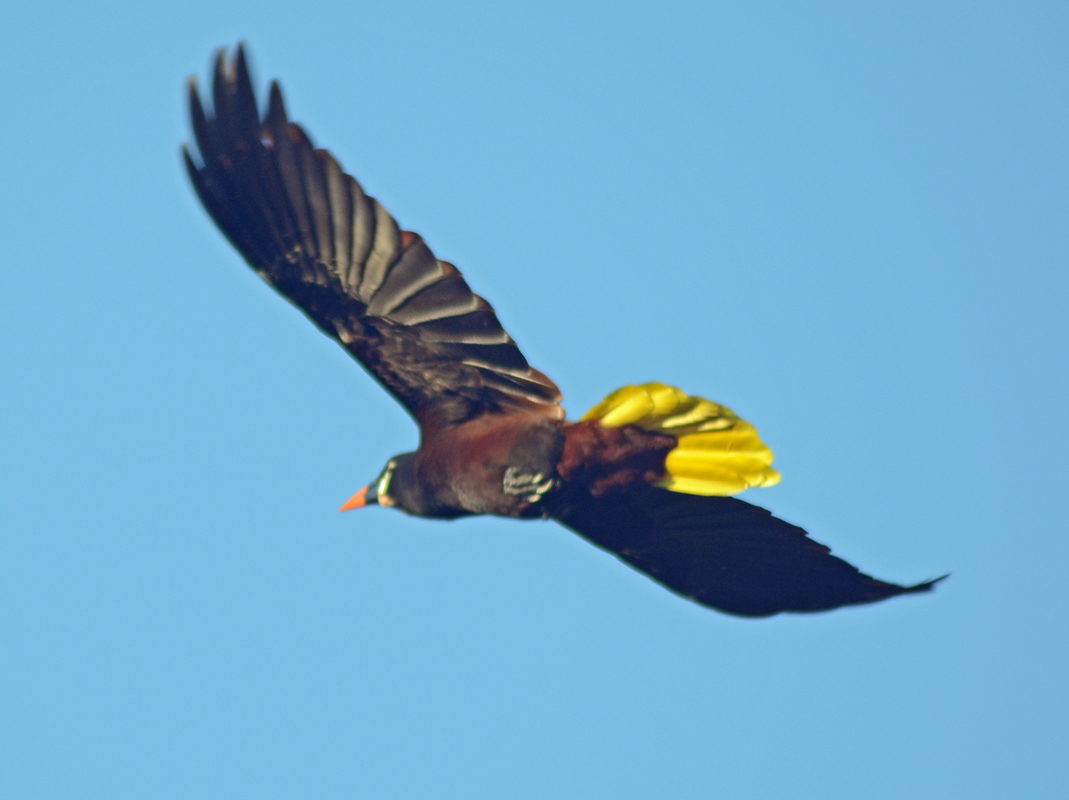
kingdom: Animalia
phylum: Chordata
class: Aves
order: Passeriformes
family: Icteridae
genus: Psarocolius
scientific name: Psarocolius montezuma
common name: Montezuma oropendola
